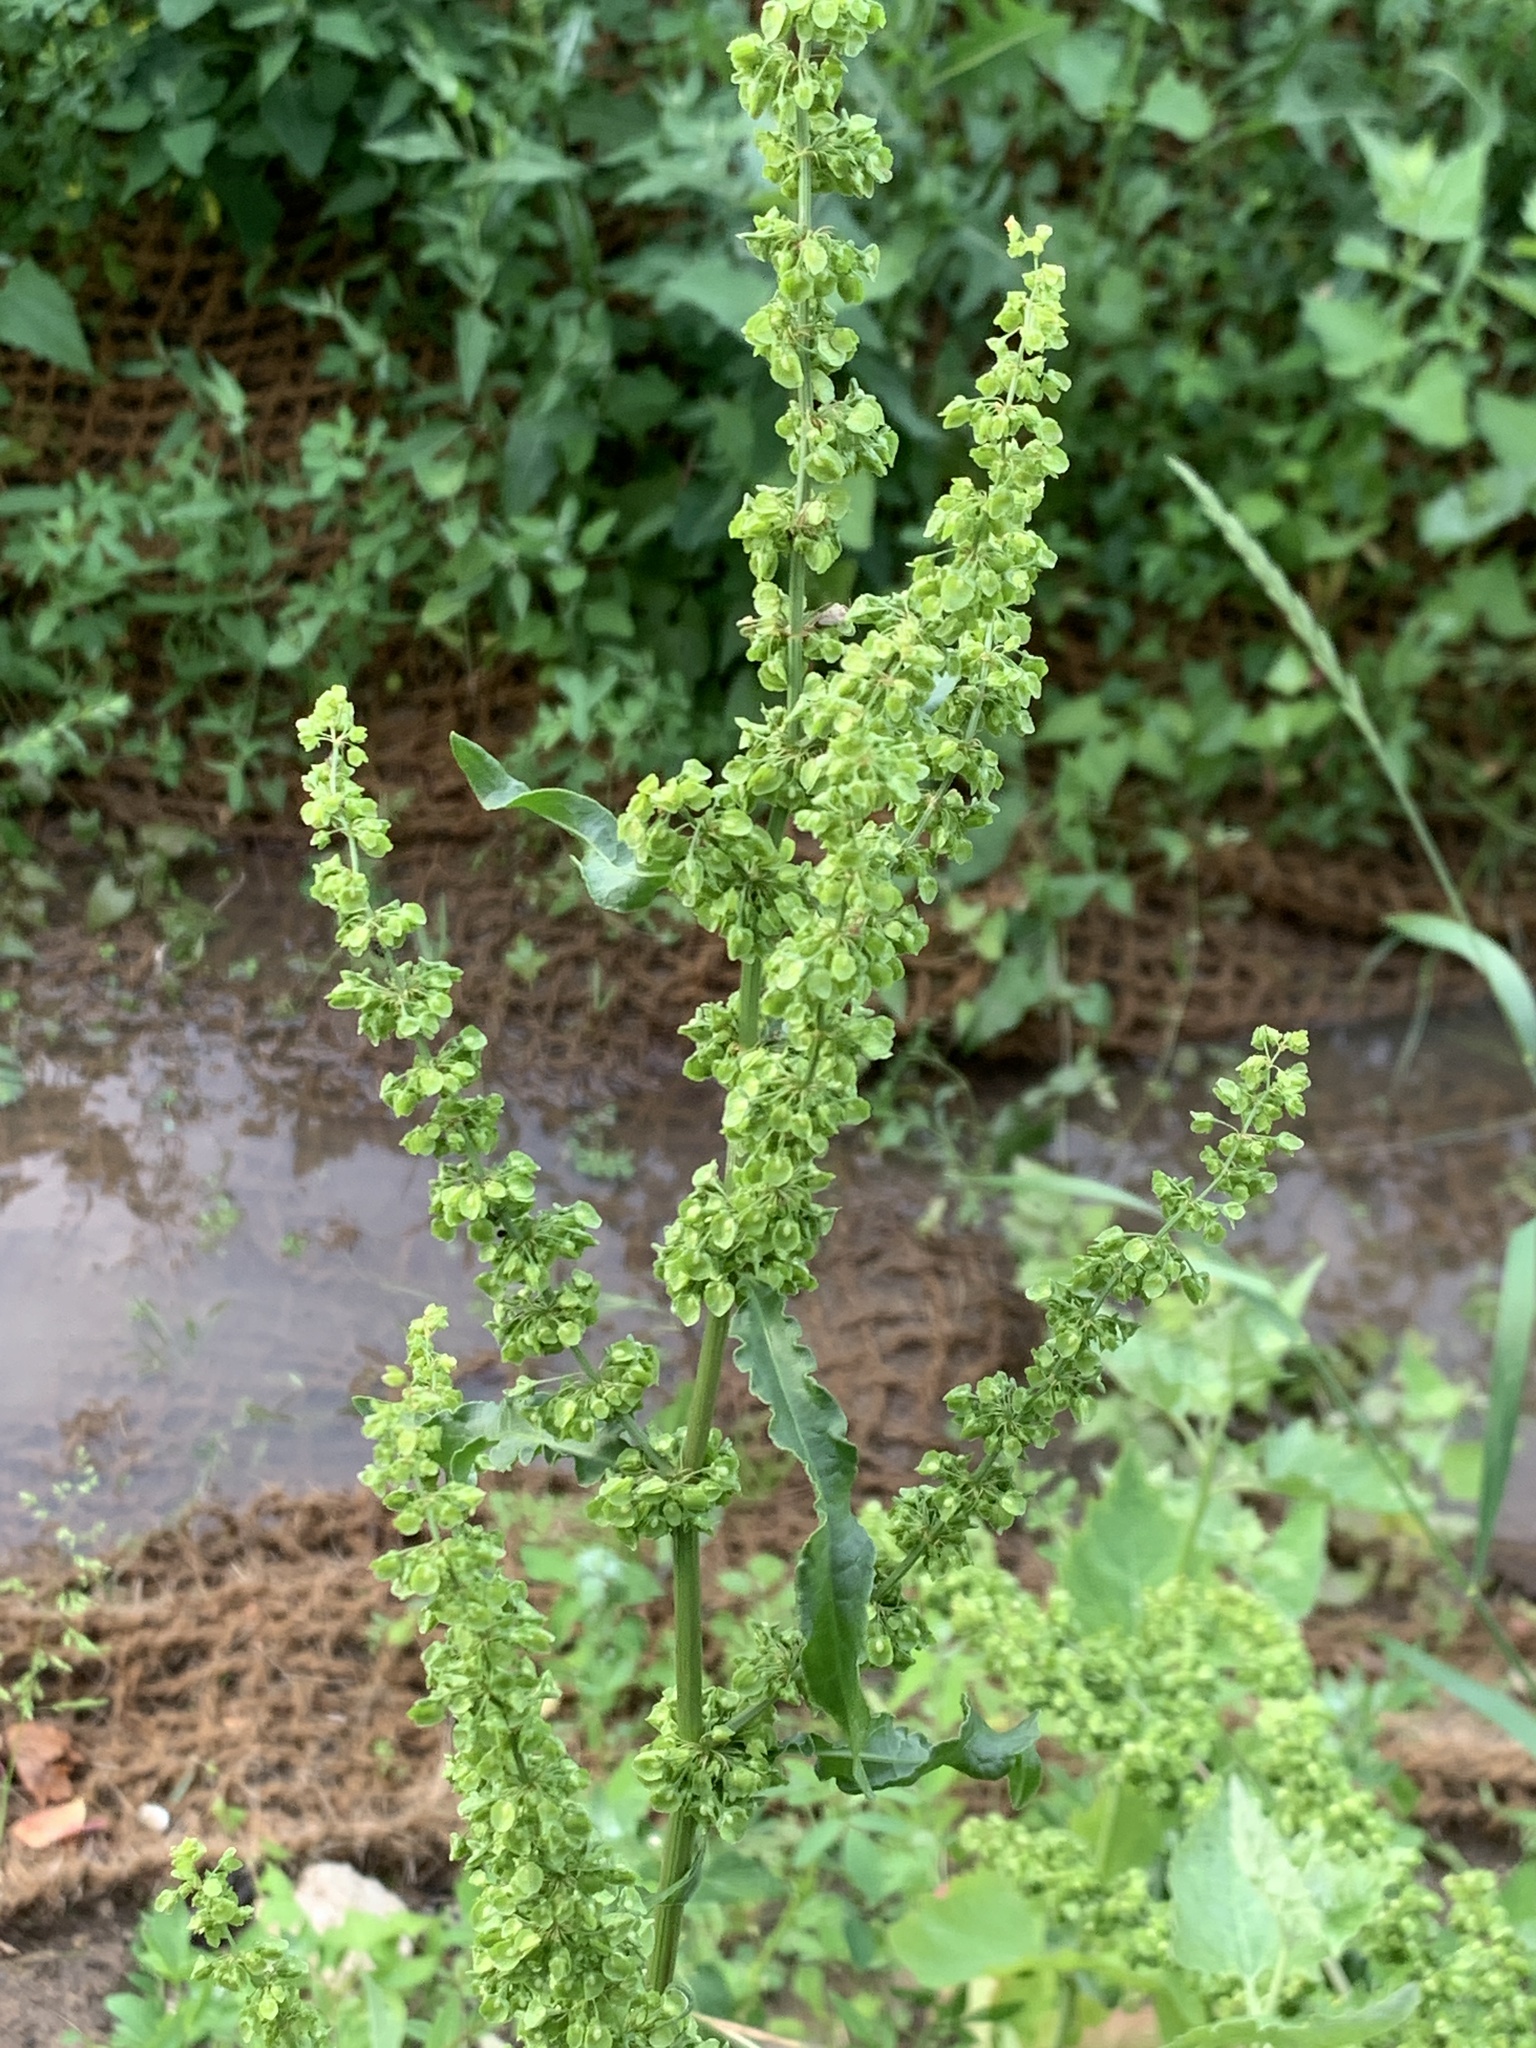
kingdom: Plantae
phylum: Tracheophyta
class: Magnoliopsida
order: Caryophyllales
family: Polygonaceae
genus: Rumex
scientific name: Rumex crispus
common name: Curled dock
